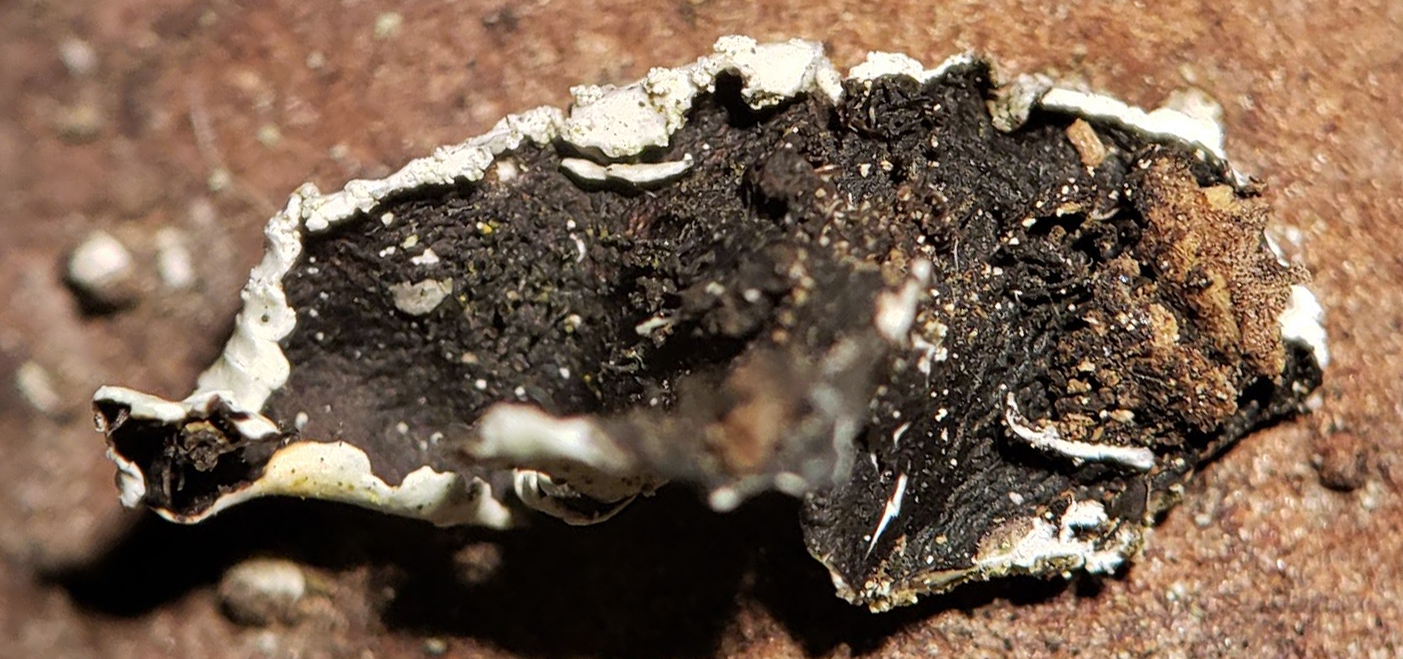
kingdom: Fungi
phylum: Ascomycota
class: Lecanoromycetes
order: Lecanorales
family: Parmeliaceae
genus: Canoparmelia
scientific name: Canoparmelia texana
